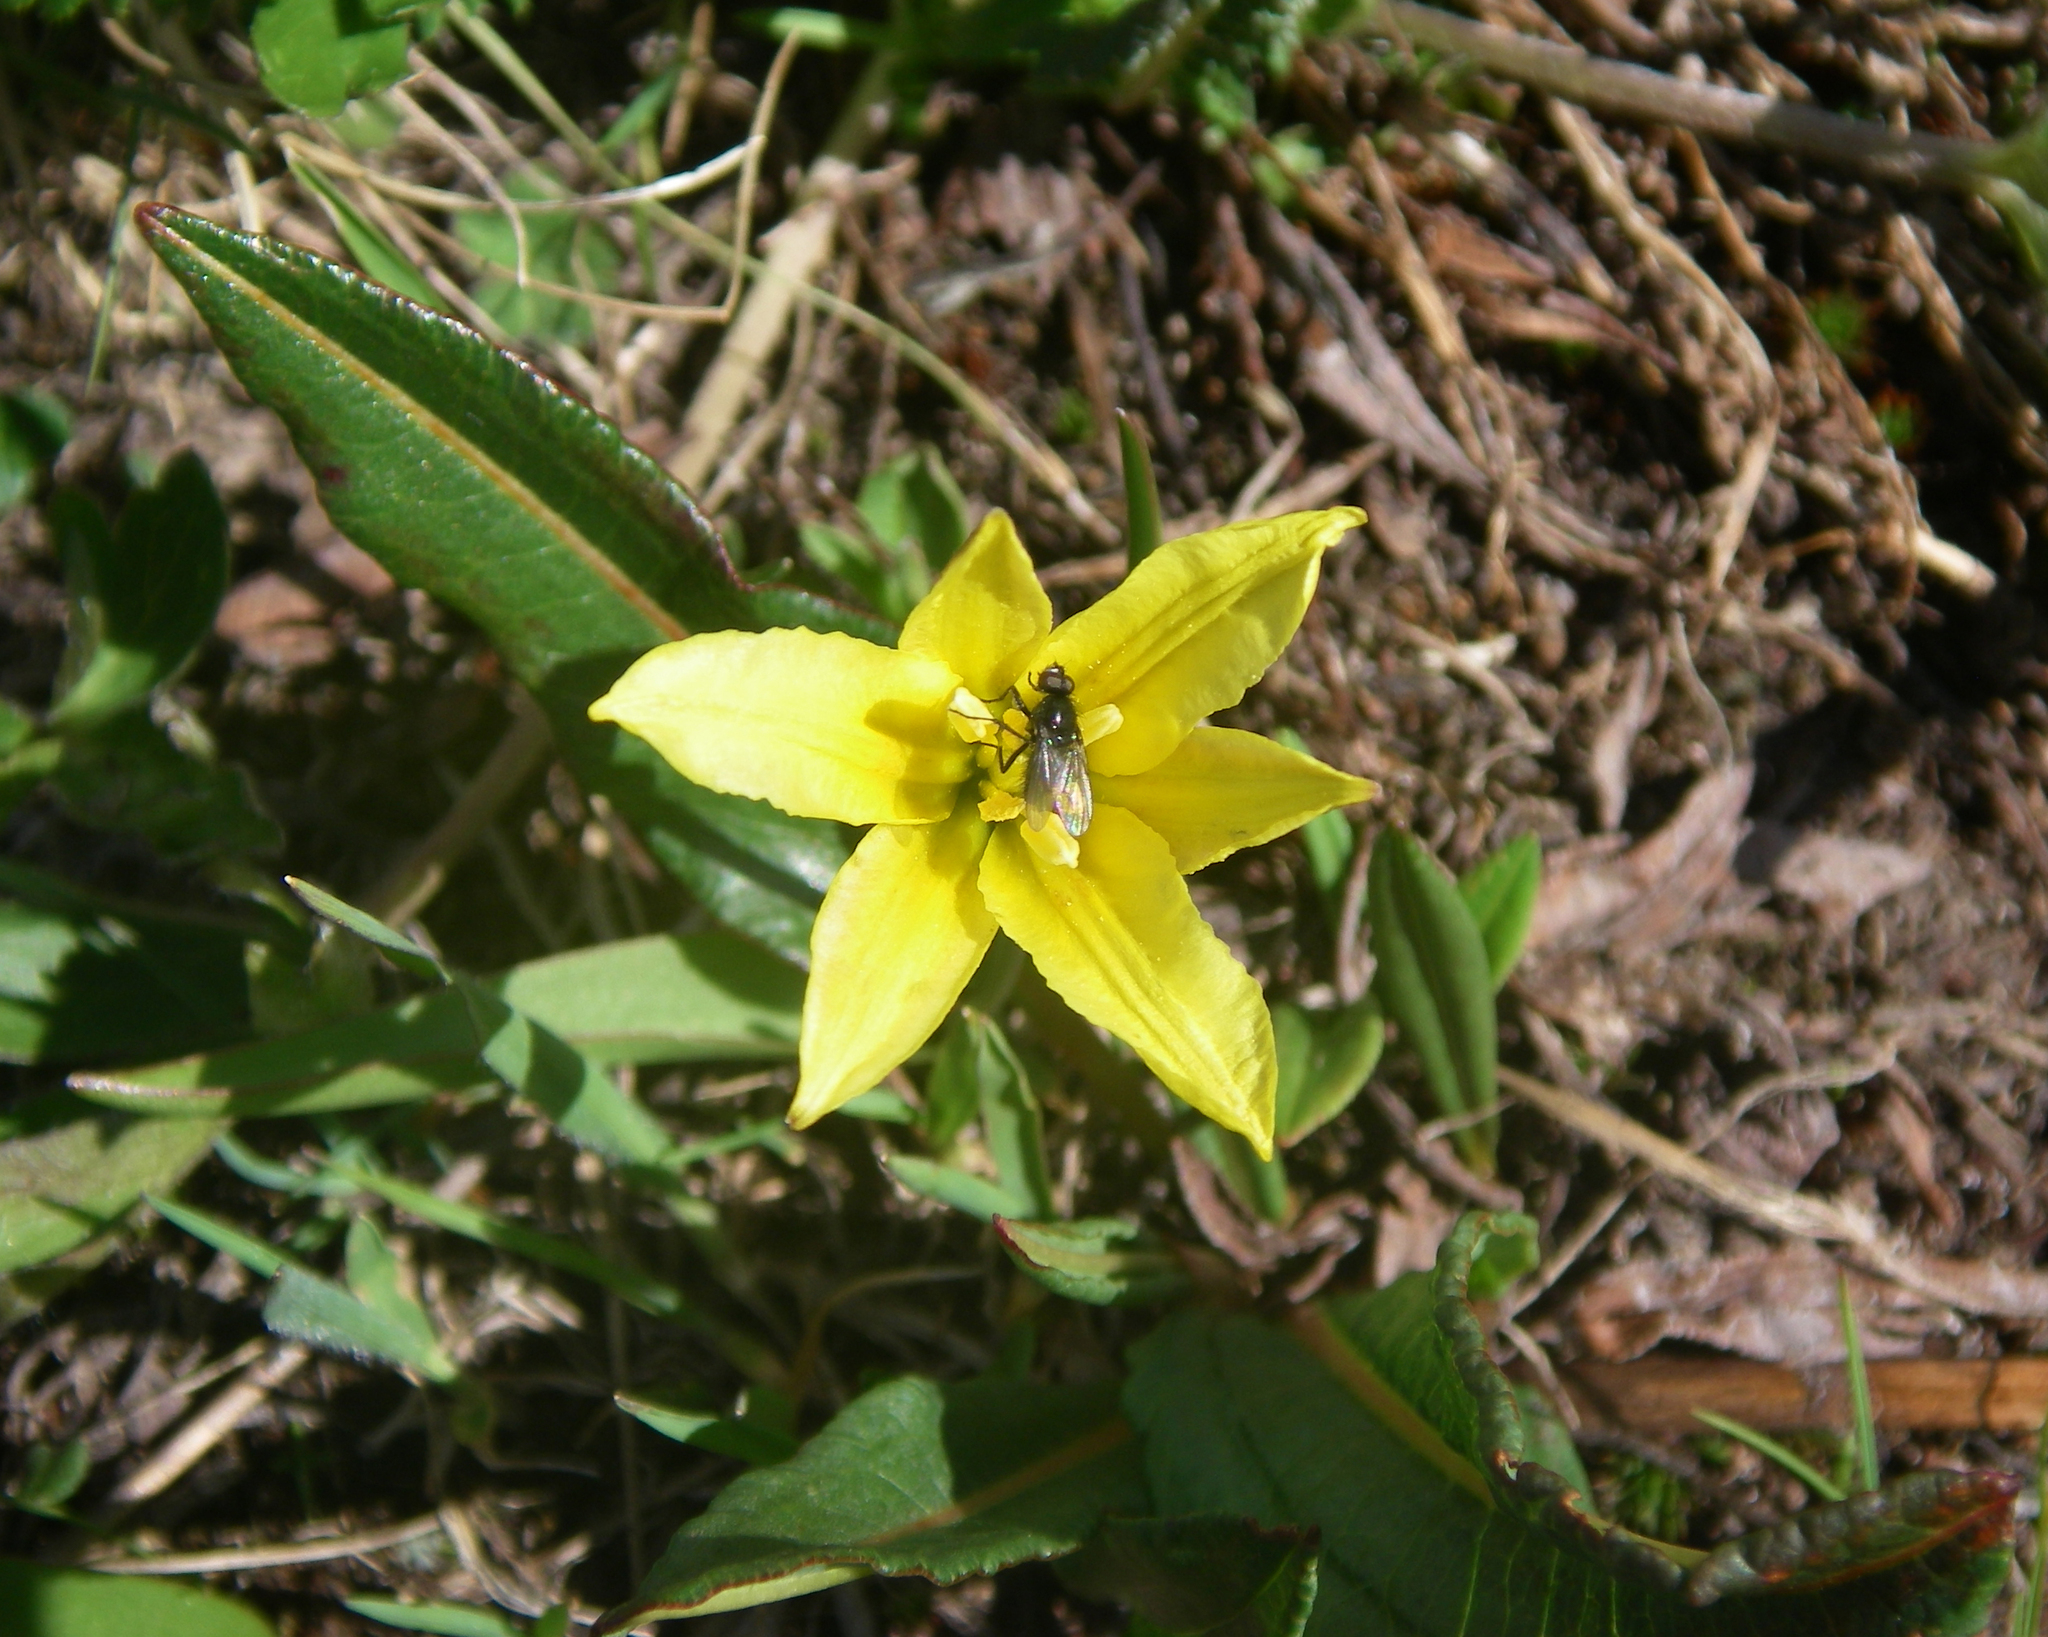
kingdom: Plantae
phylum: Tracheophyta
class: Liliopsida
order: Liliales
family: Liliaceae
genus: Tulipa
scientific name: Tulipa heterophylla
